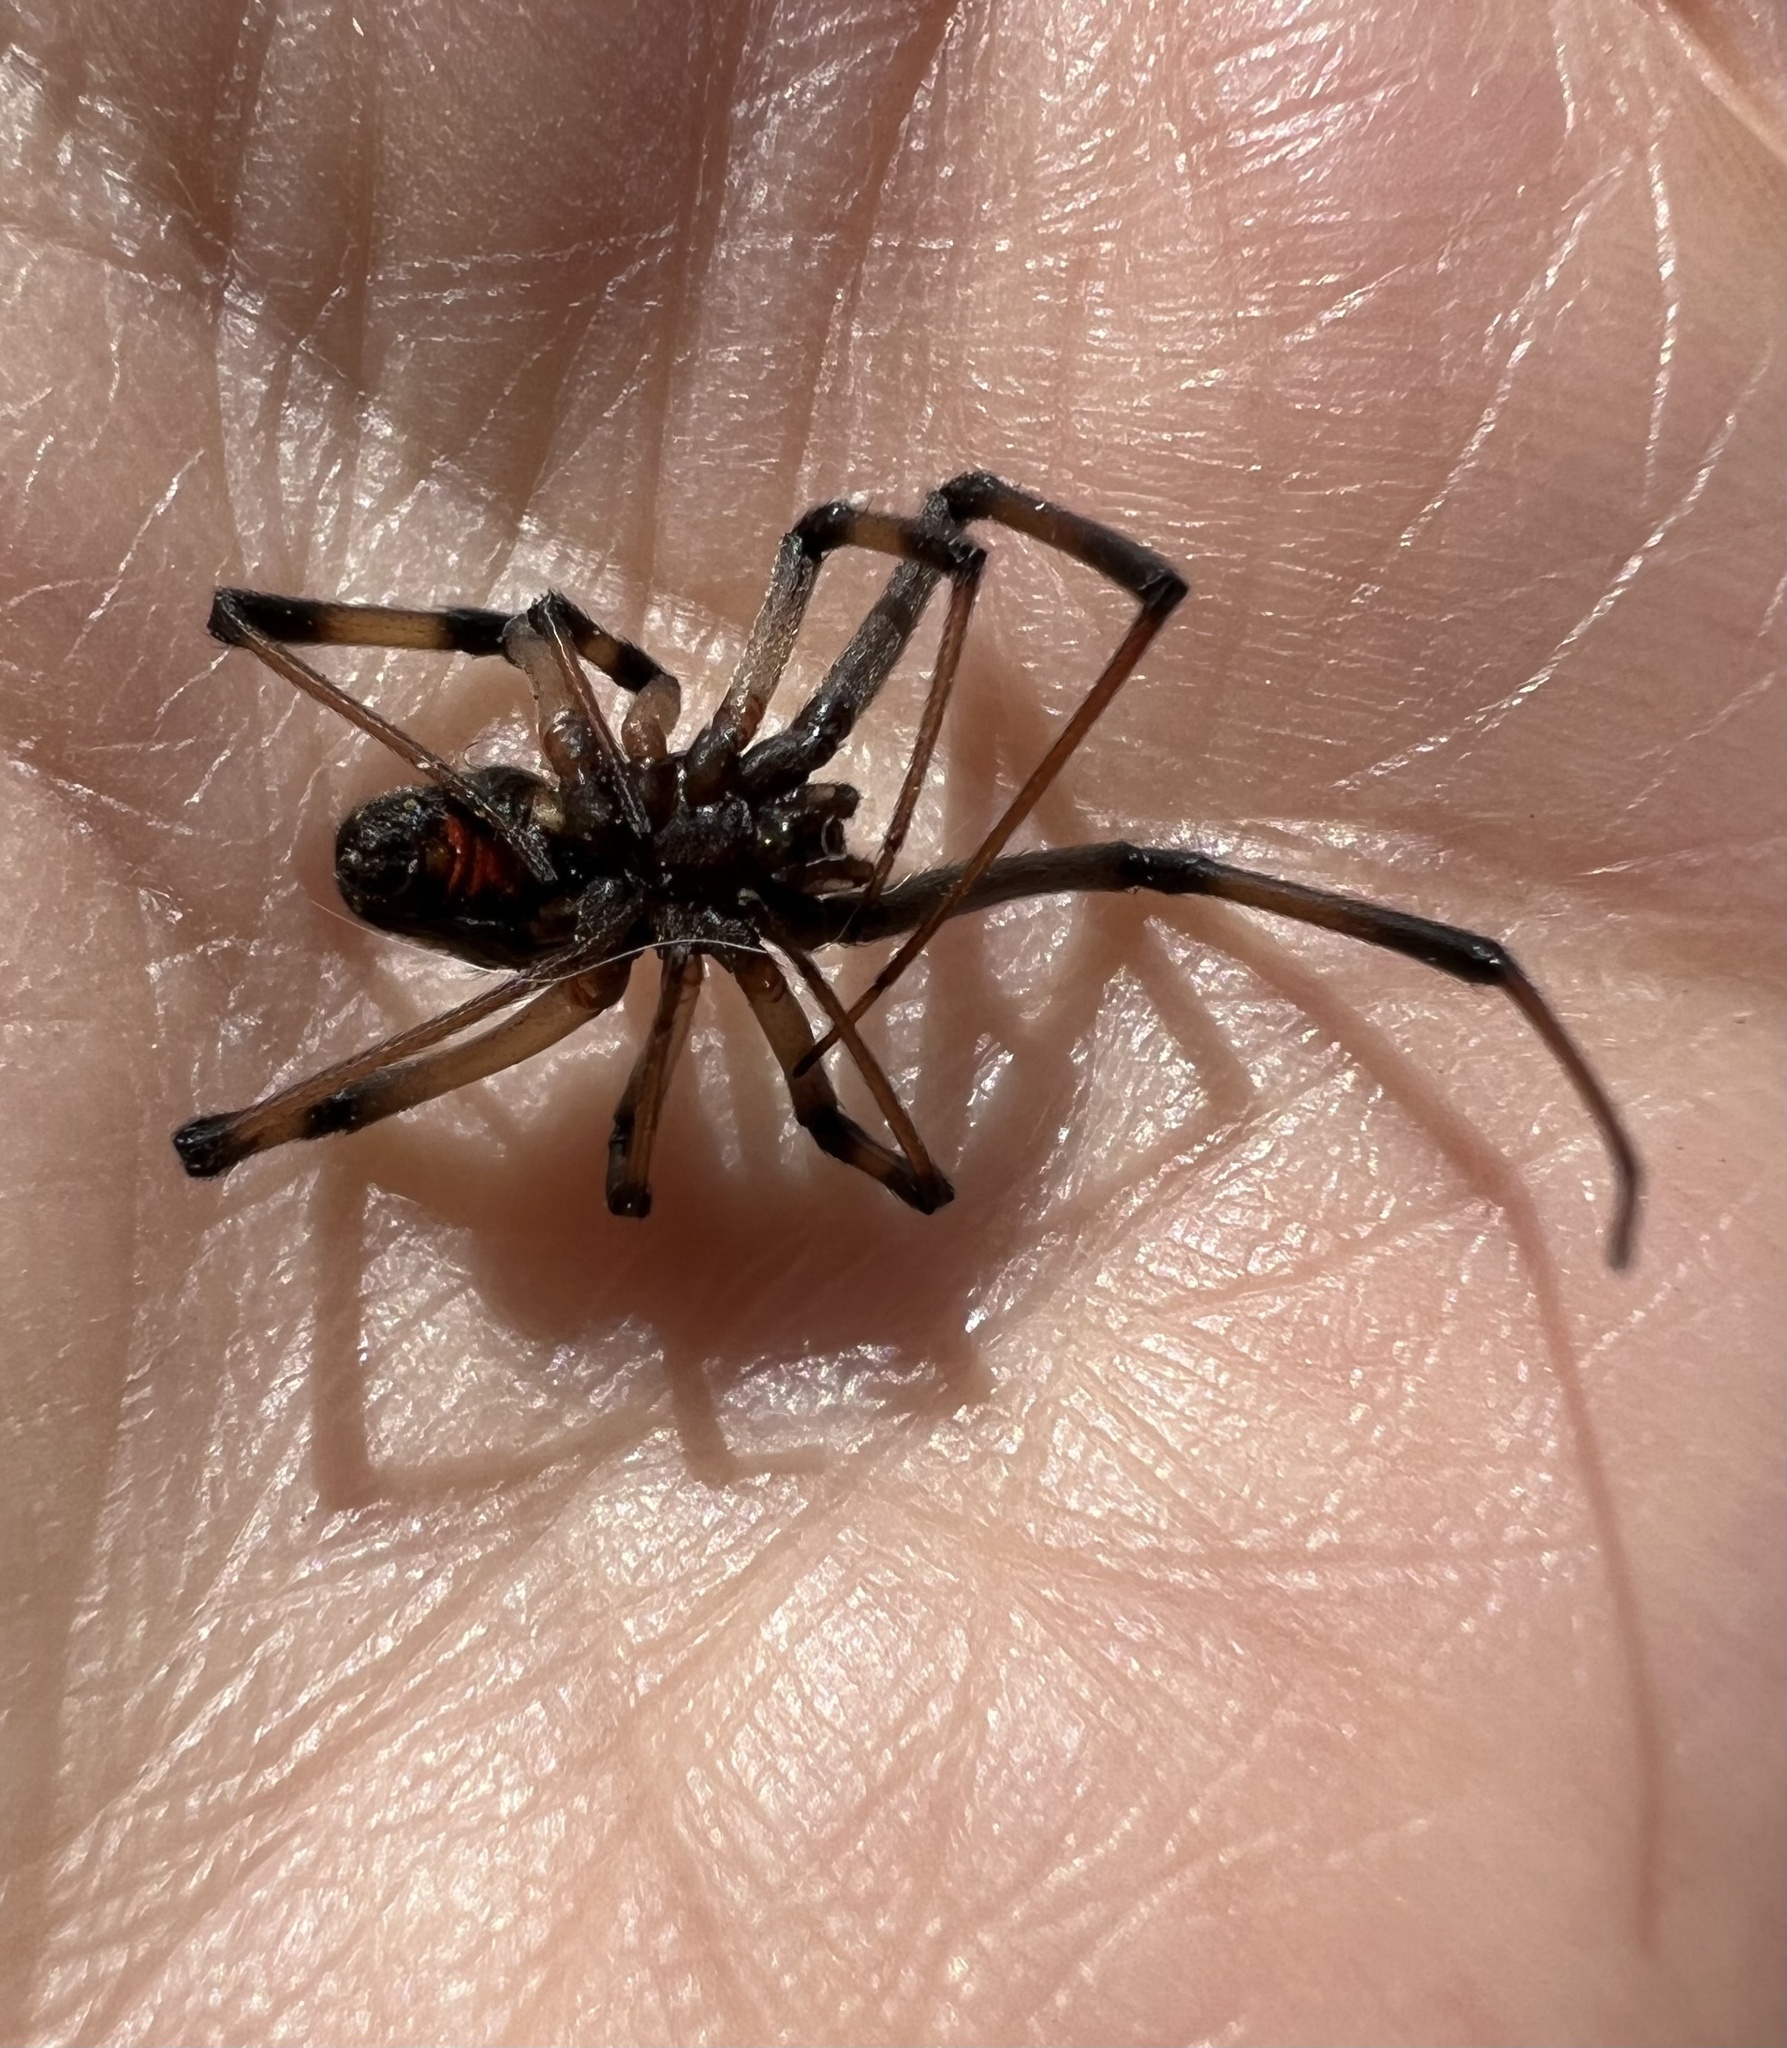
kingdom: Animalia
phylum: Arthropoda
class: Arachnida
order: Araneae
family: Theridiidae
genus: Latrodectus
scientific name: Latrodectus geometricus
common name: Brown widow spider
